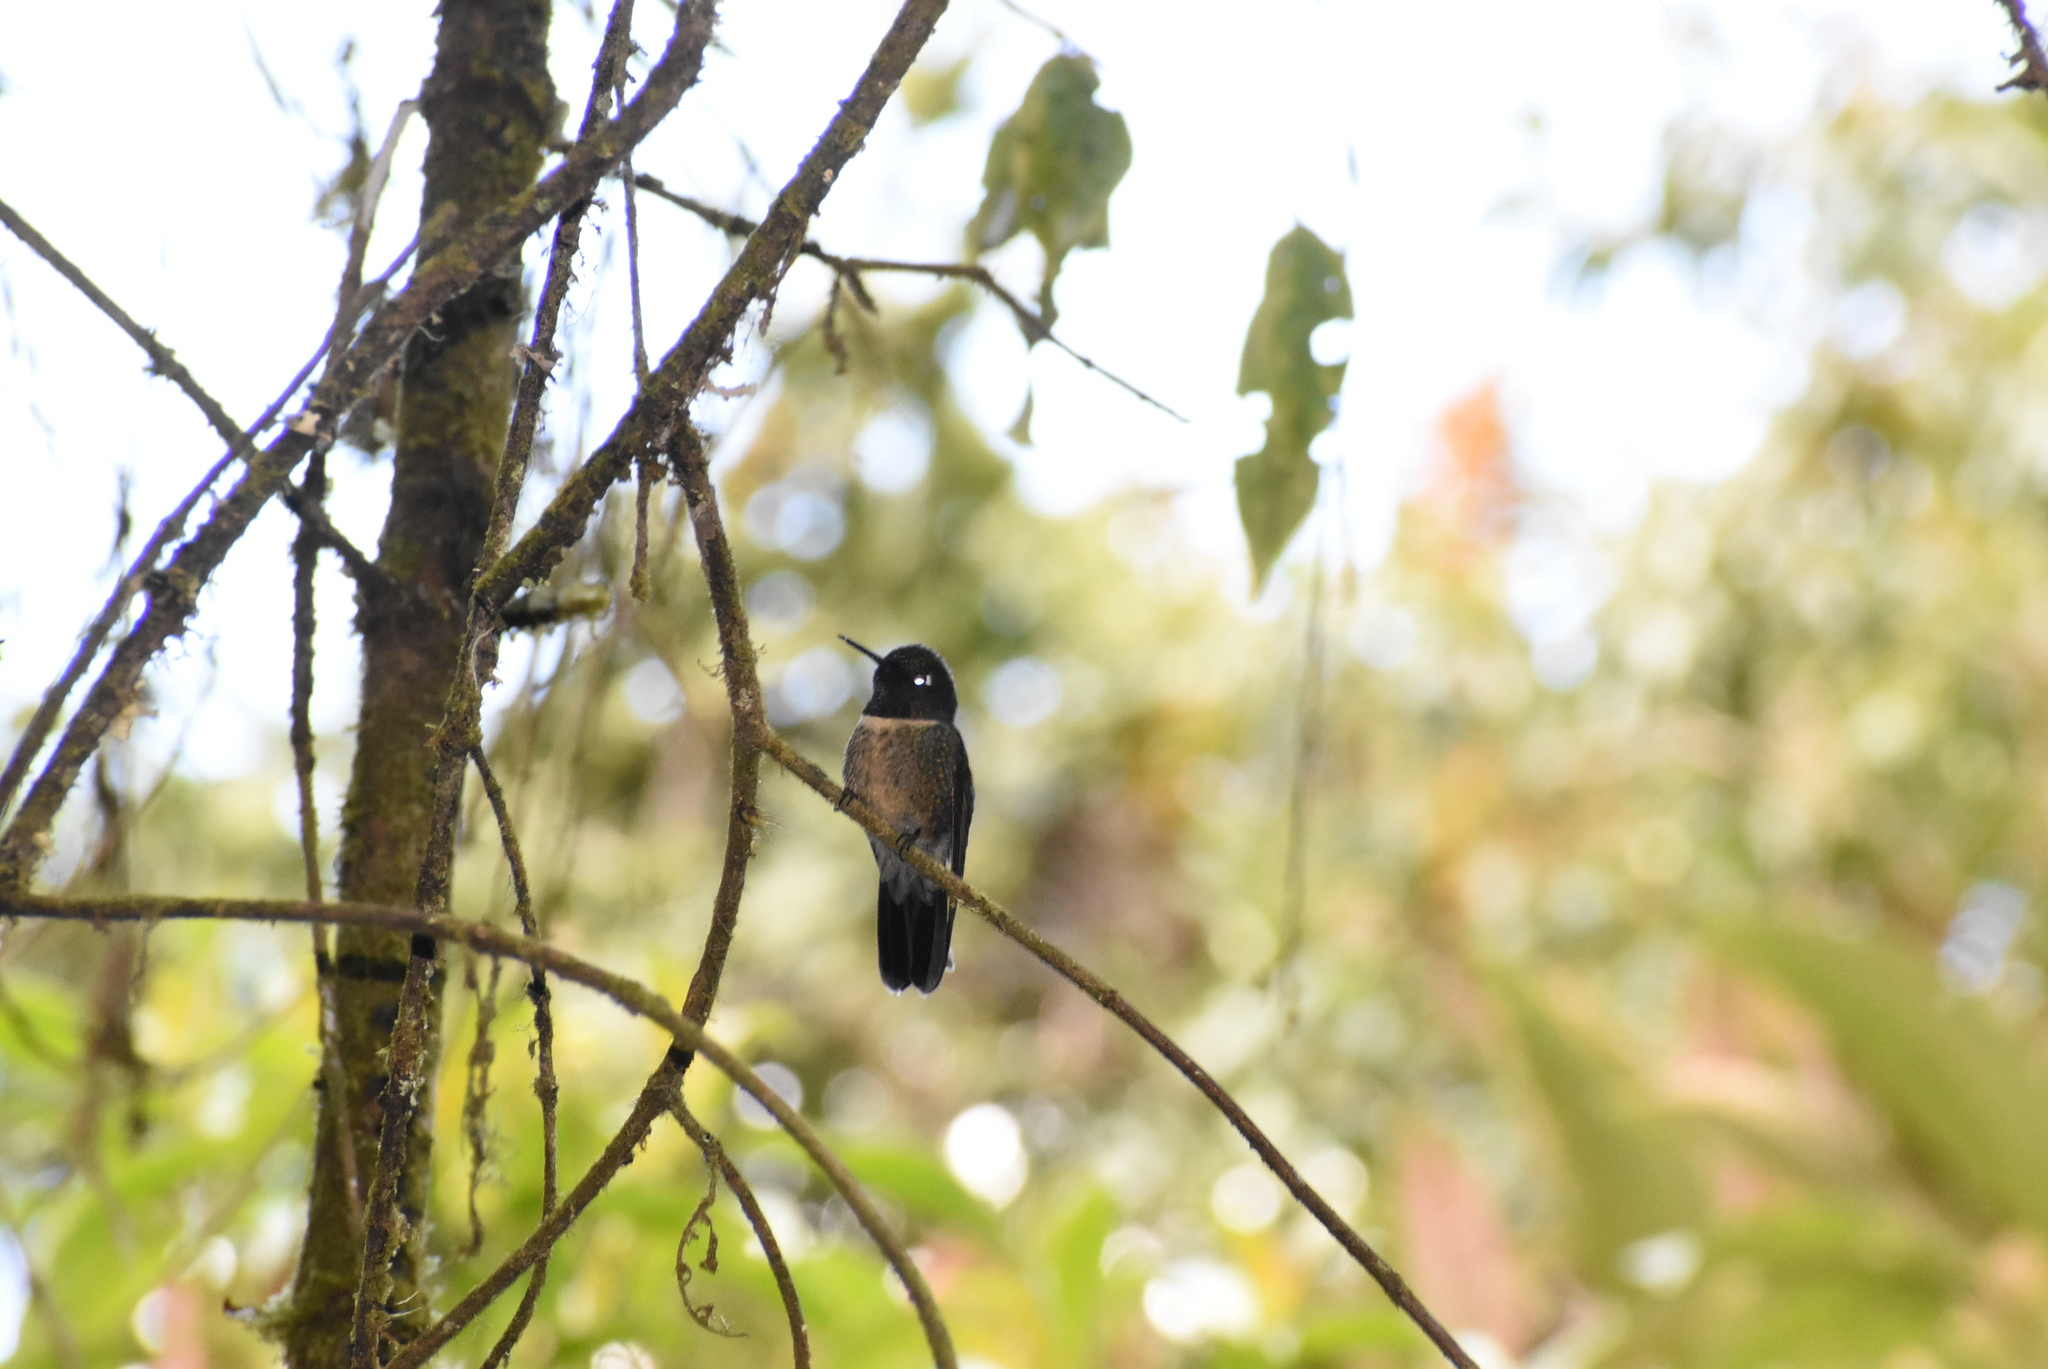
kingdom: Animalia
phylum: Chordata
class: Aves
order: Apodiformes
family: Trochilidae
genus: Heliangelus
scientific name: Heliangelus amethysticollis
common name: Amethyst-throated sunangel
